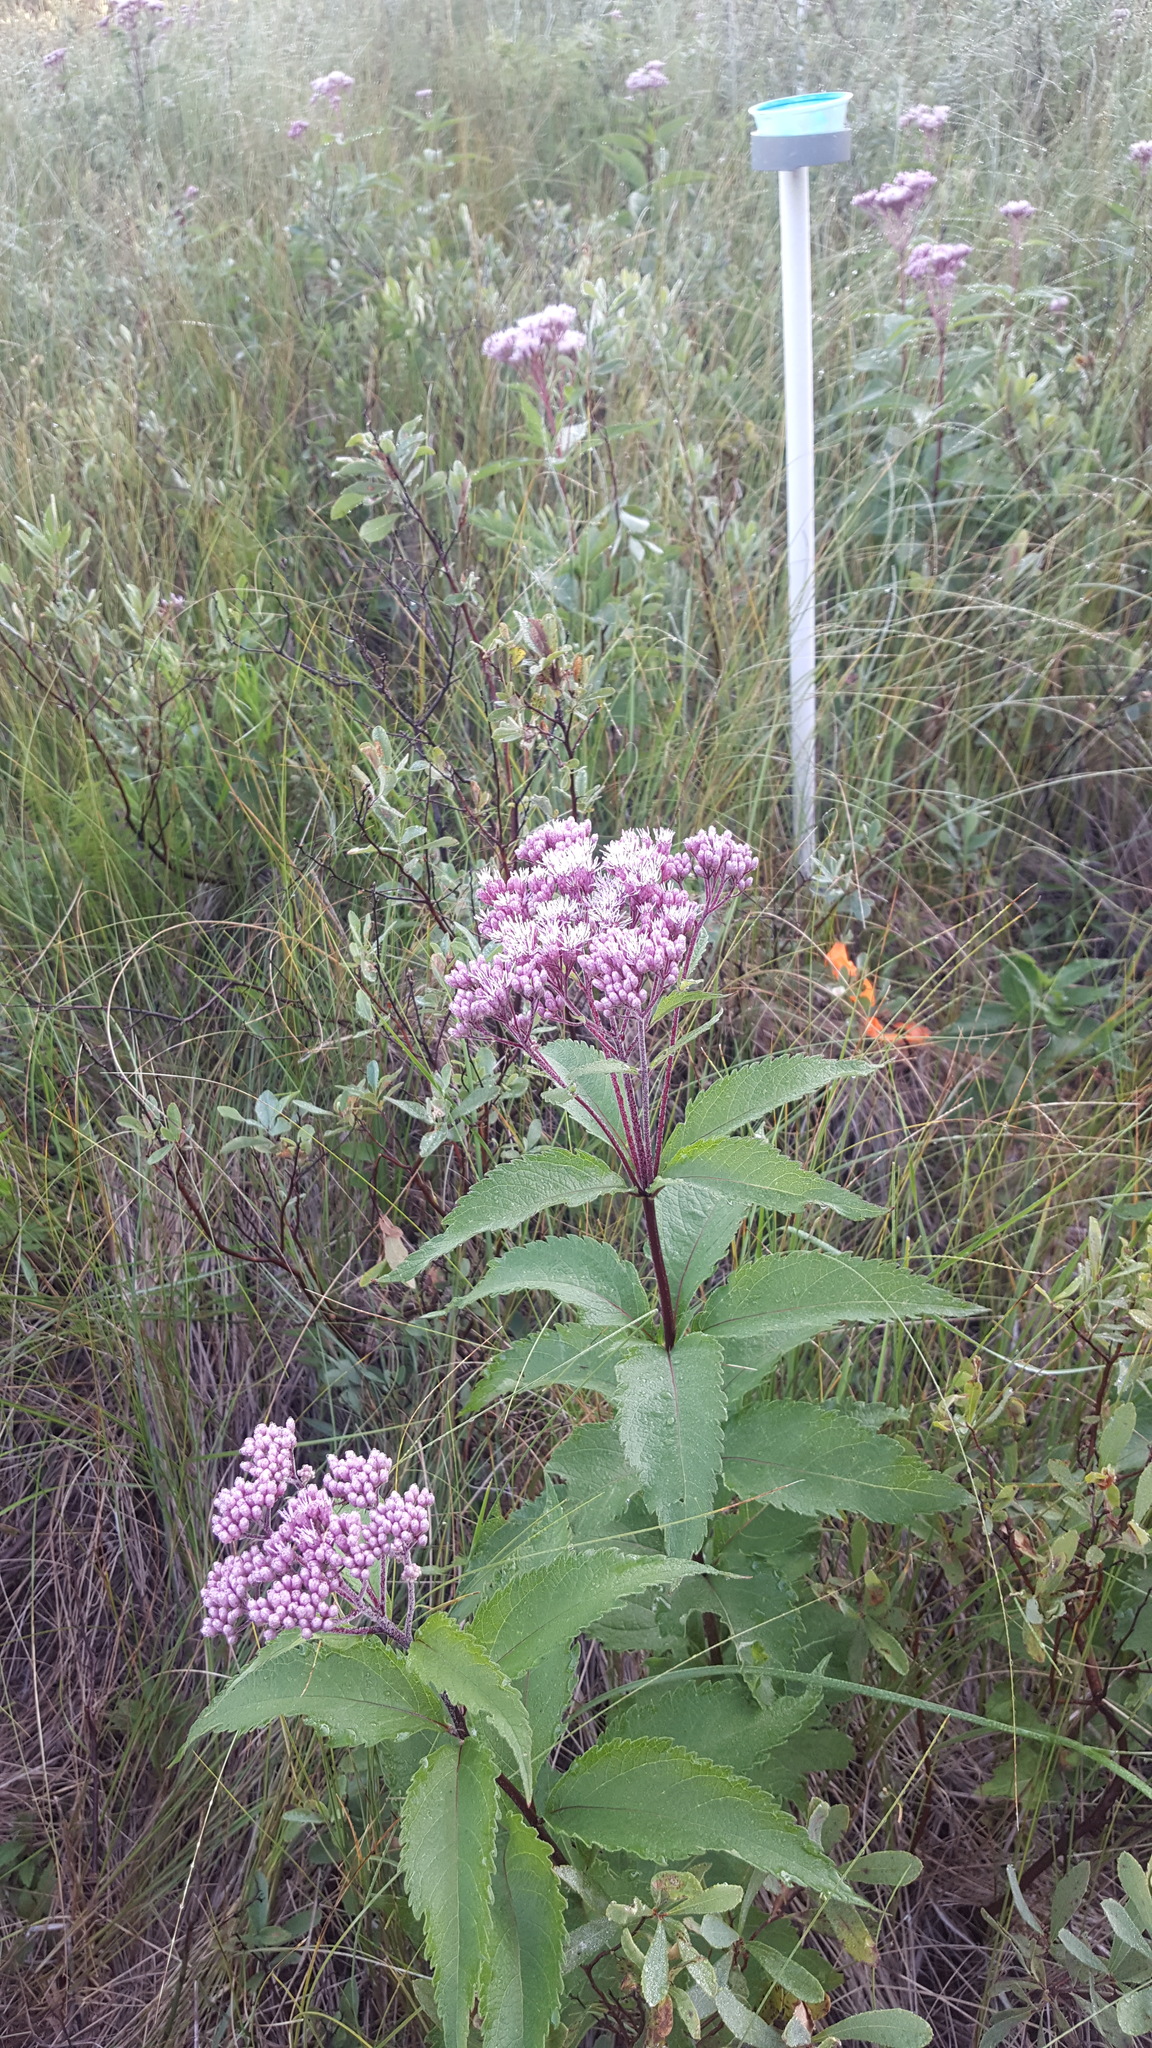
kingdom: Plantae
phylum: Tracheophyta
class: Magnoliopsida
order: Asterales
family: Asteraceae
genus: Eutrochium
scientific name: Eutrochium maculatum
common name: Spotted joe pye weed
